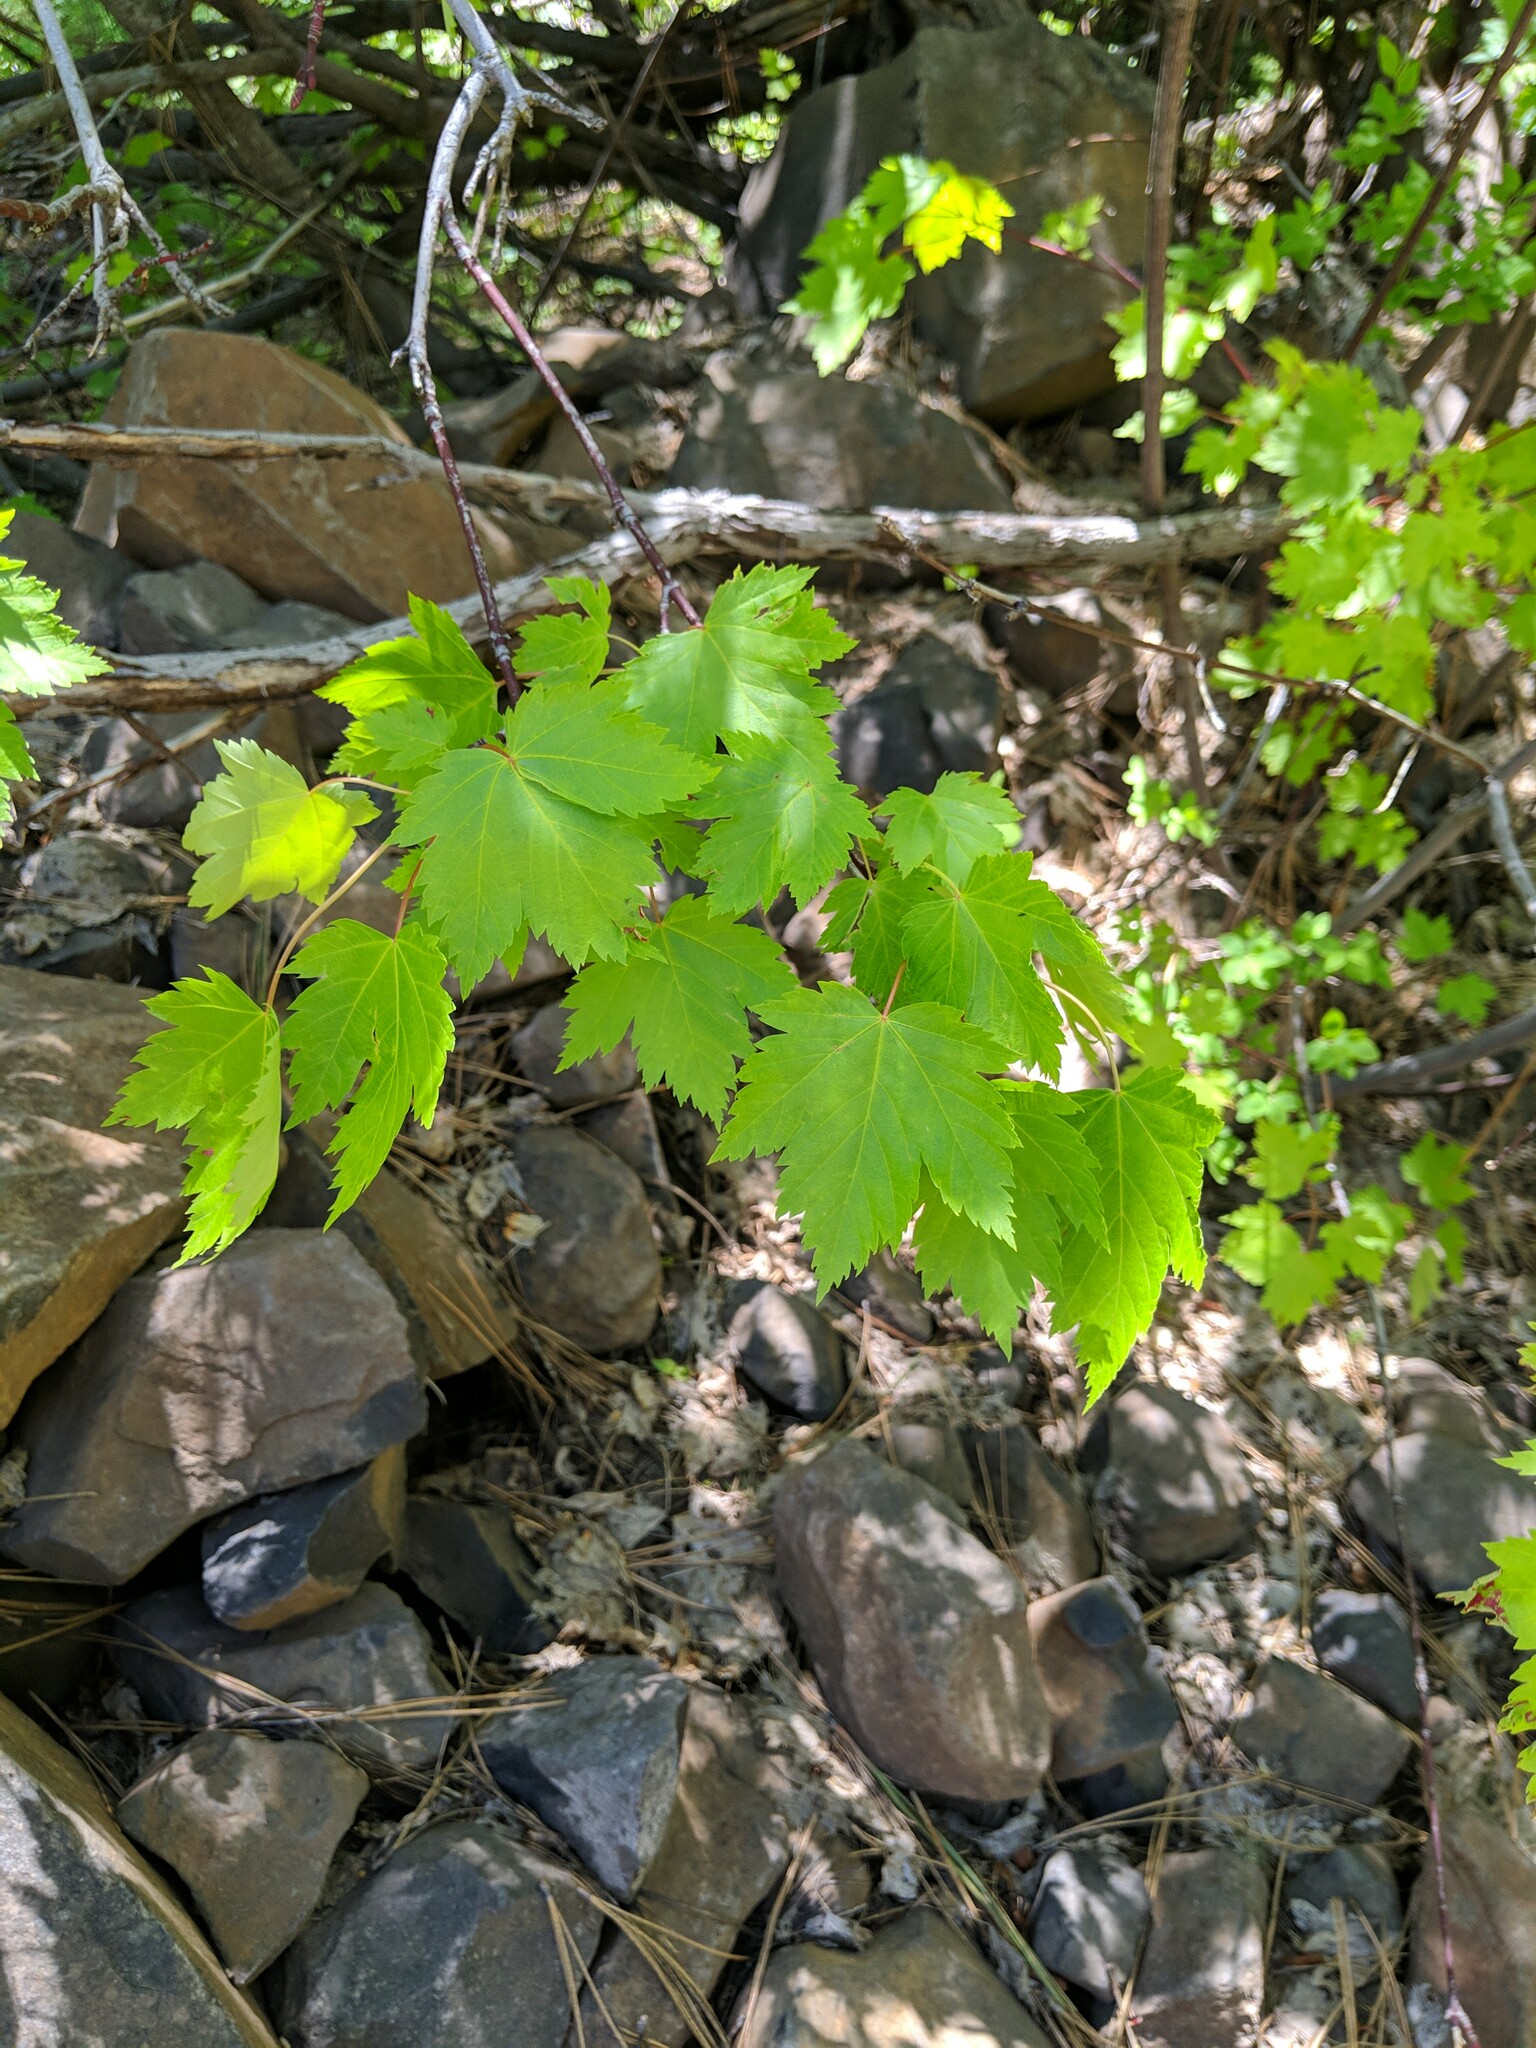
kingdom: Plantae
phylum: Tracheophyta
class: Magnoliopsida
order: Sapindales
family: Sapindaceae
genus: Acer
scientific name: Acer glabrum
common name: Rocky mountain maple
